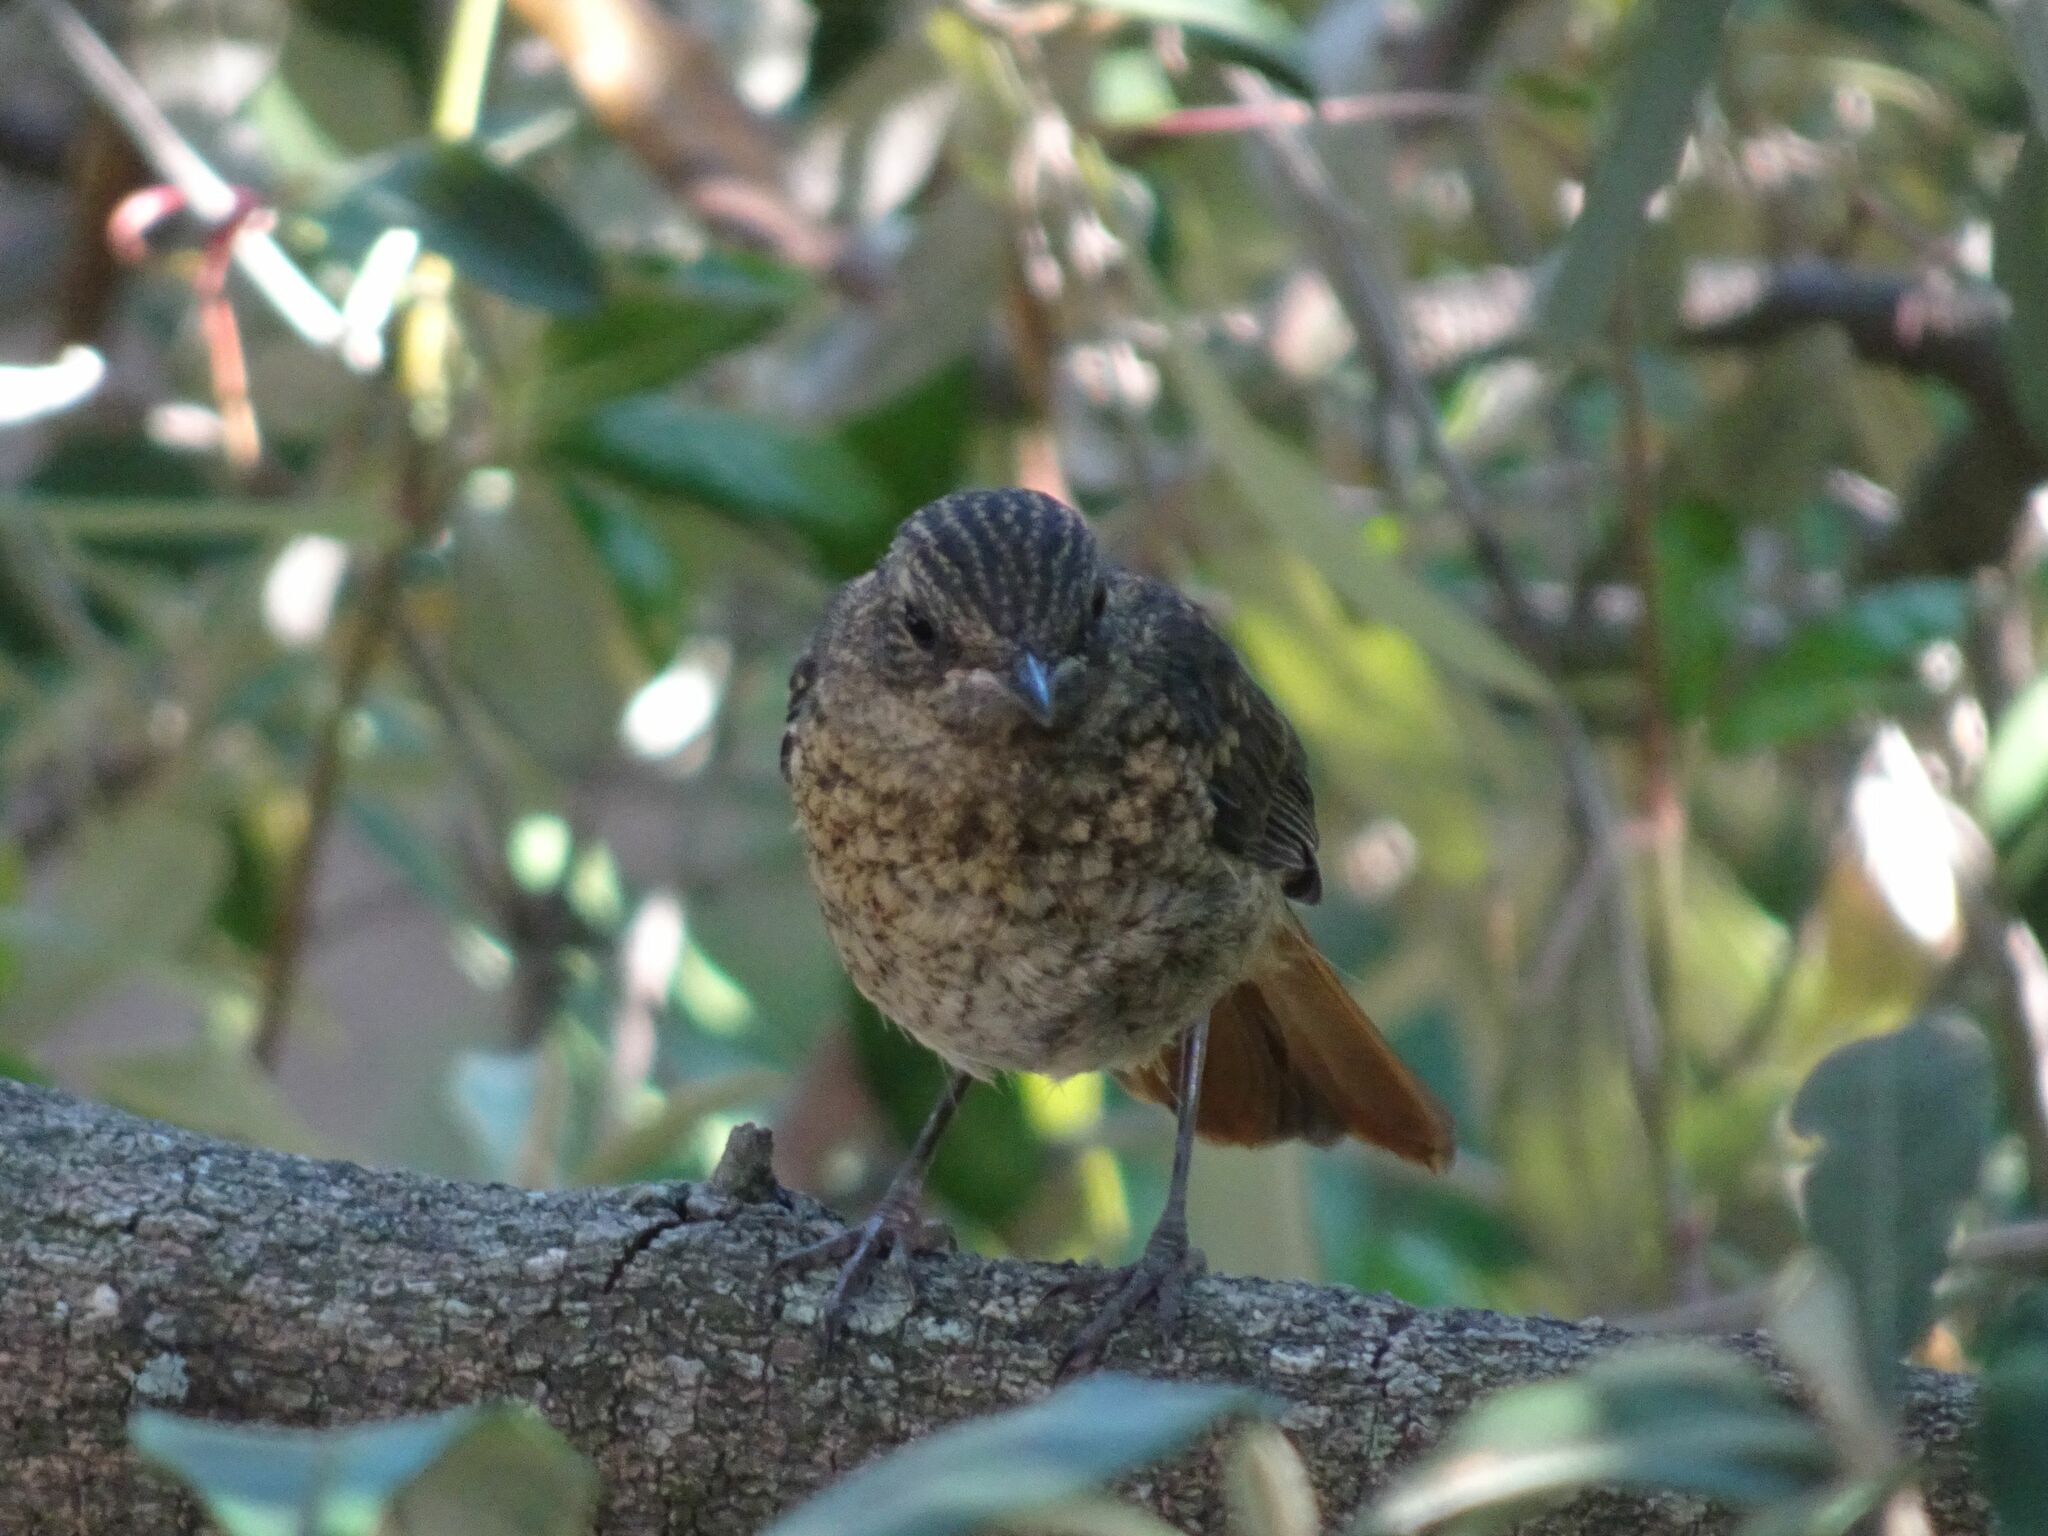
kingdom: Animalia
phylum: Chordata
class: Aves
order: Passeriformes
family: Muscicapidae
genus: Cossypha
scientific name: Cossypha caffra
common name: Cape robin-chat
